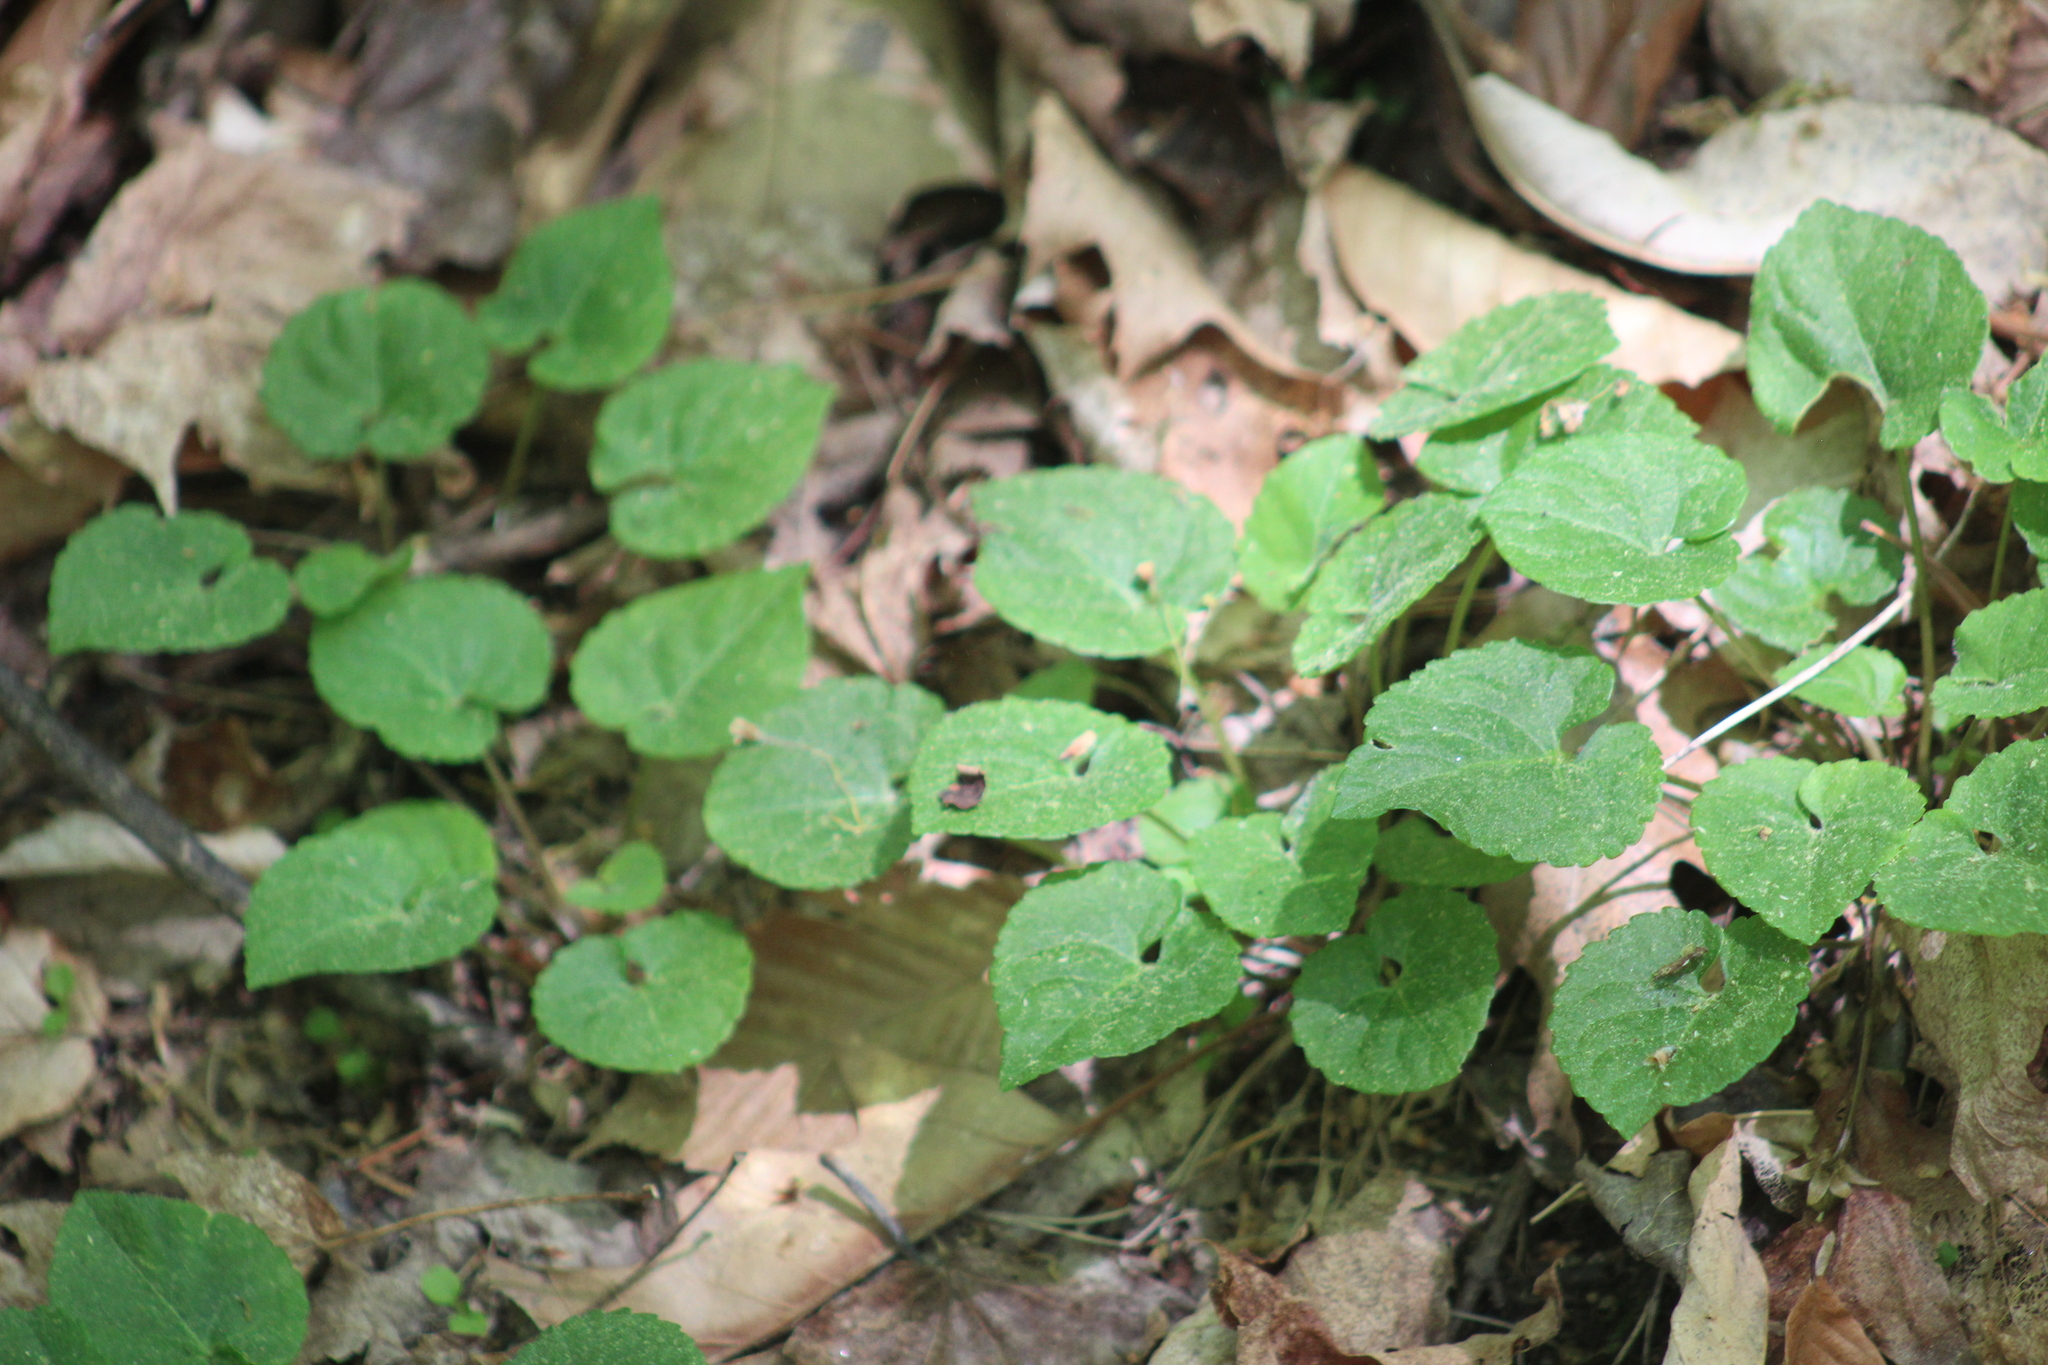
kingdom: Plantae
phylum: Tracheophyta
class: Magnoliopsida
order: Malpighiales
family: Violaceae
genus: Viola
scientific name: Viola selkirkii
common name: Selkirk's violet
